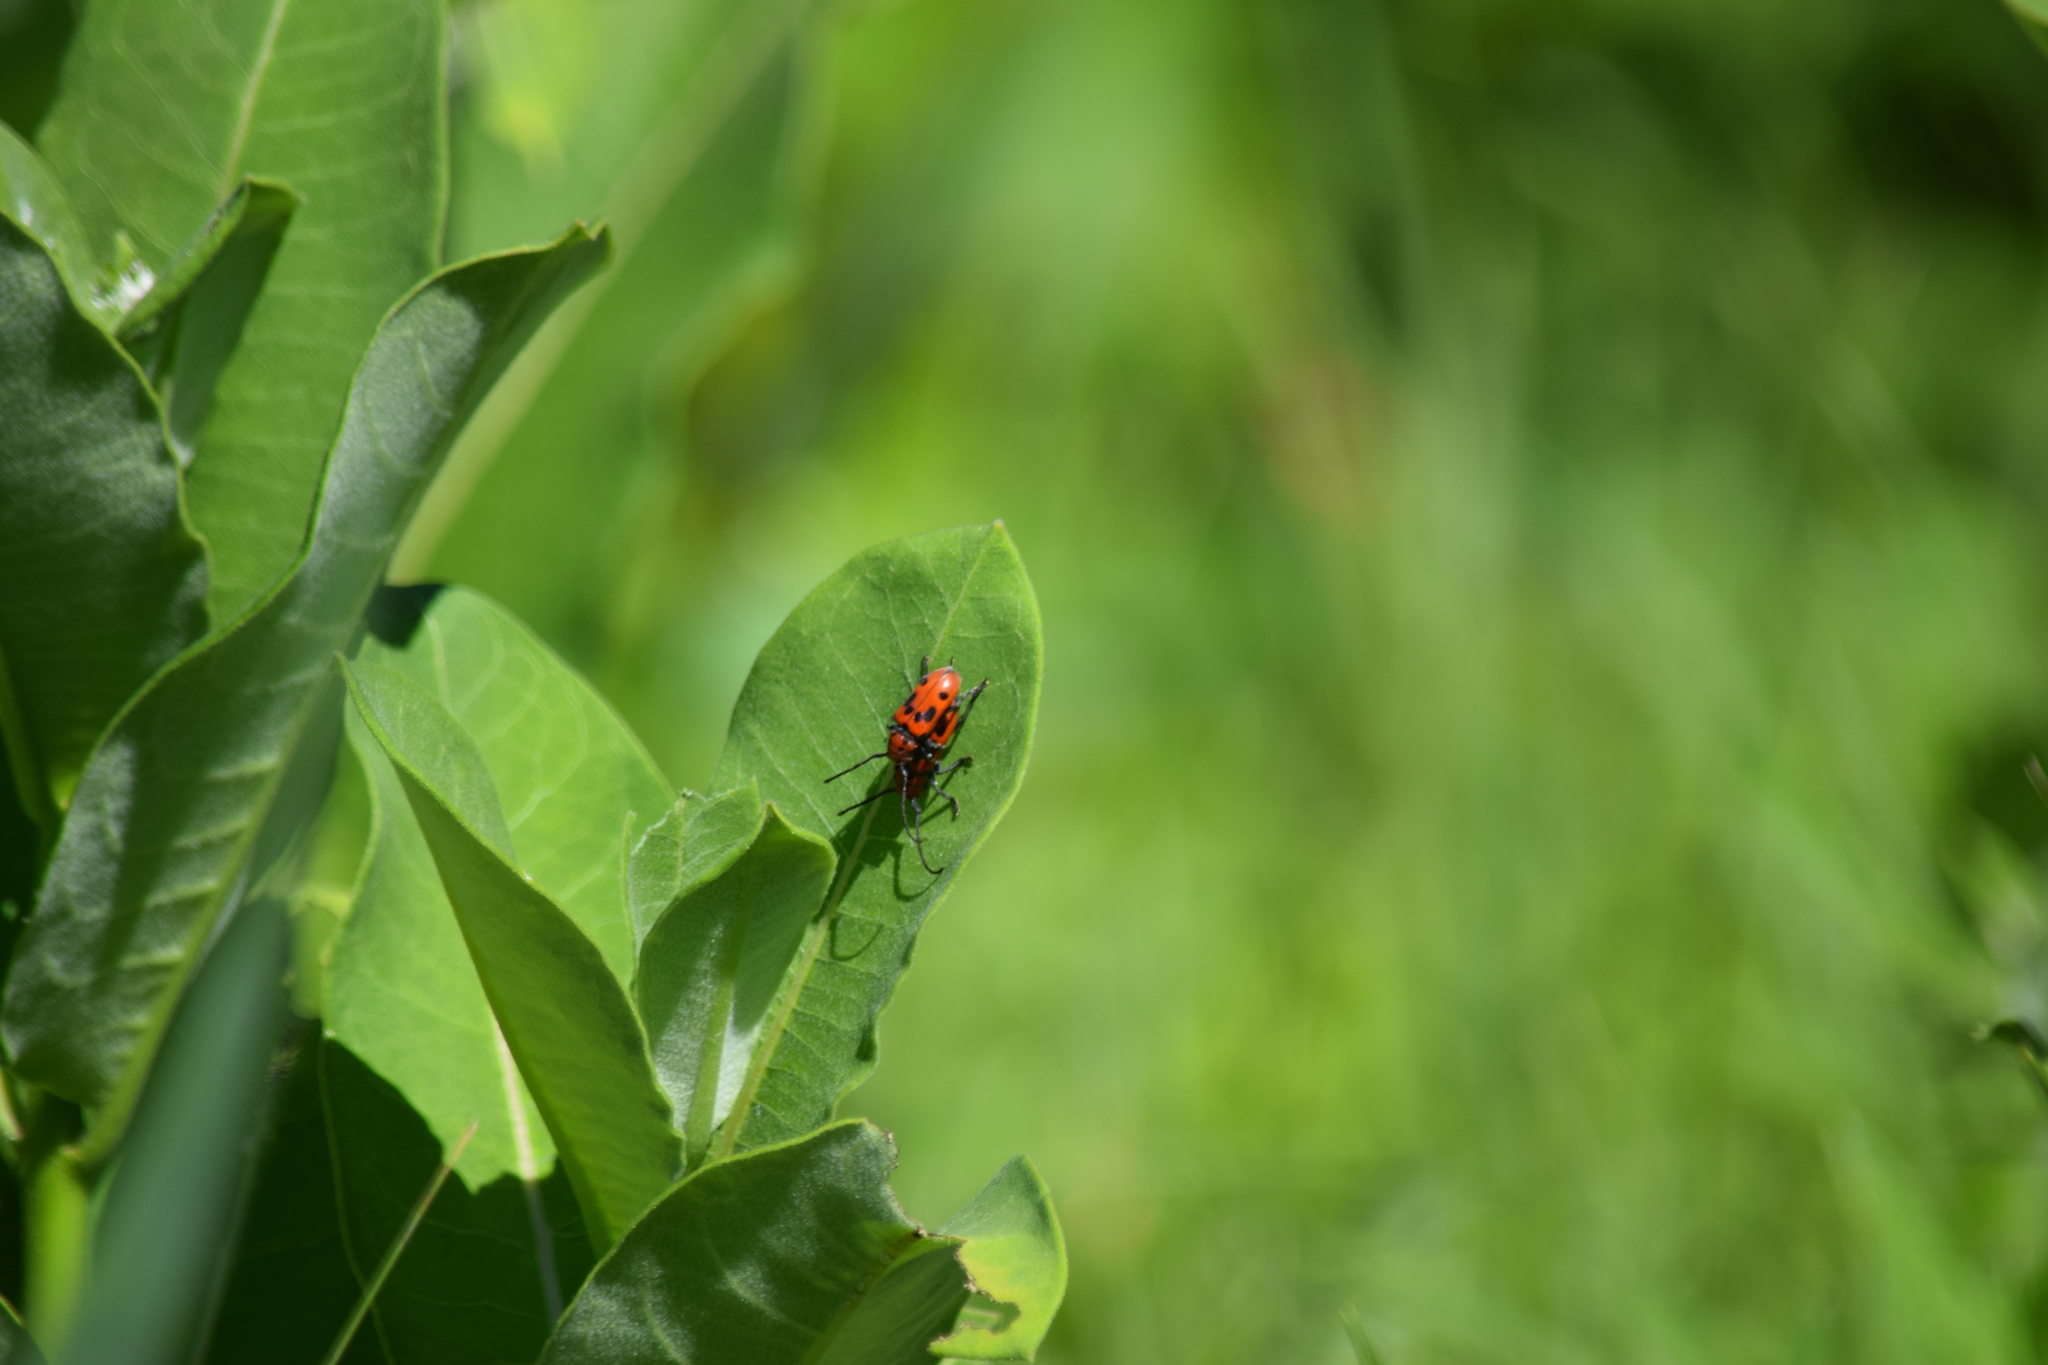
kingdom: Animalia
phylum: Arthropoda
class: Insecta
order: Coleoptera
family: Cerambycidae
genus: Tetraopes
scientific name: Tetraopes tetrophthalmus
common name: Red milkweed beetle
